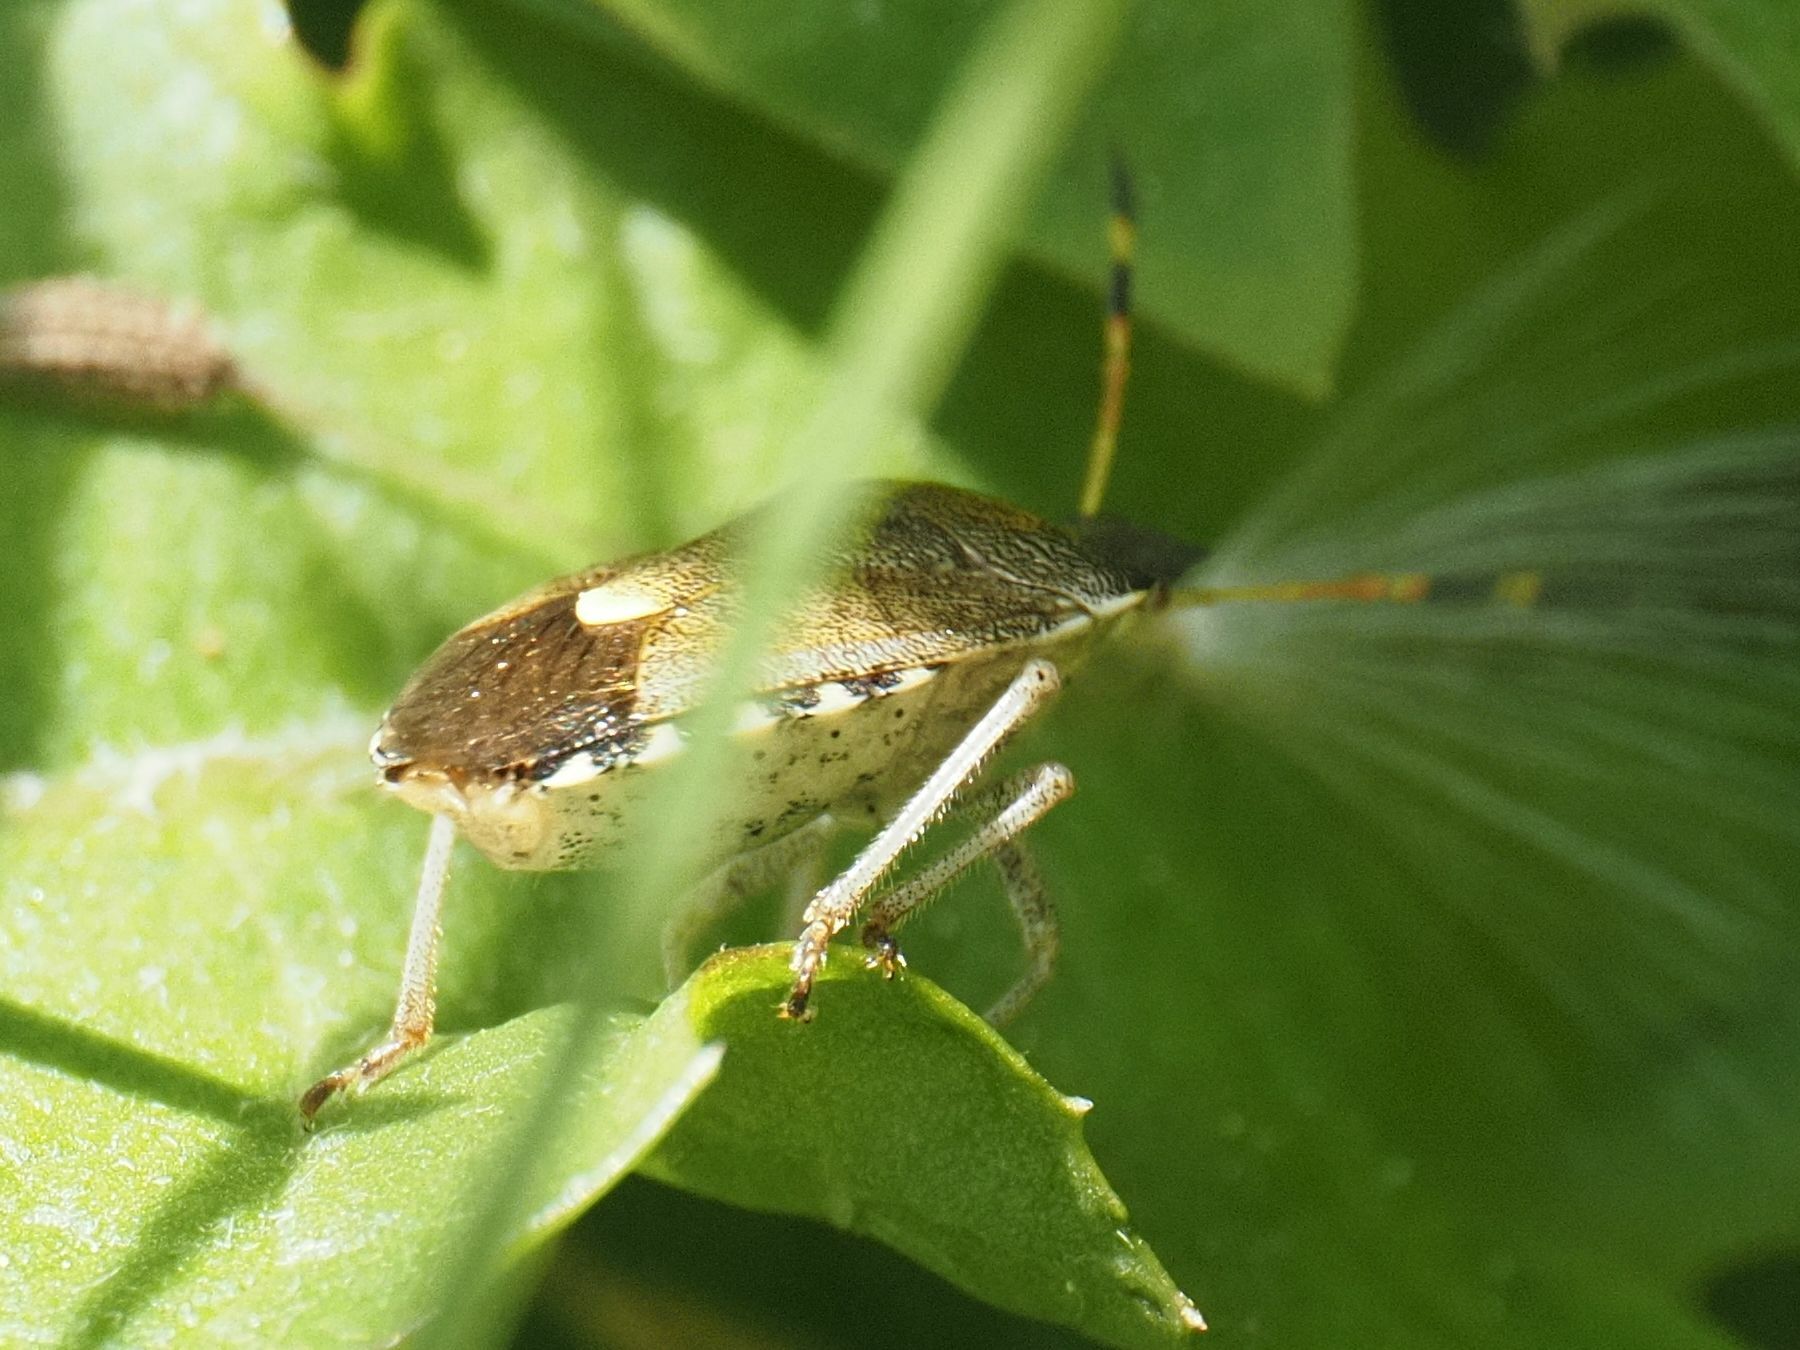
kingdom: Animalia
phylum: Arthropoda
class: Insecta
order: Hemiptera
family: Pentatomidae
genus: Holcostethus
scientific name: Holcostethus strictus
